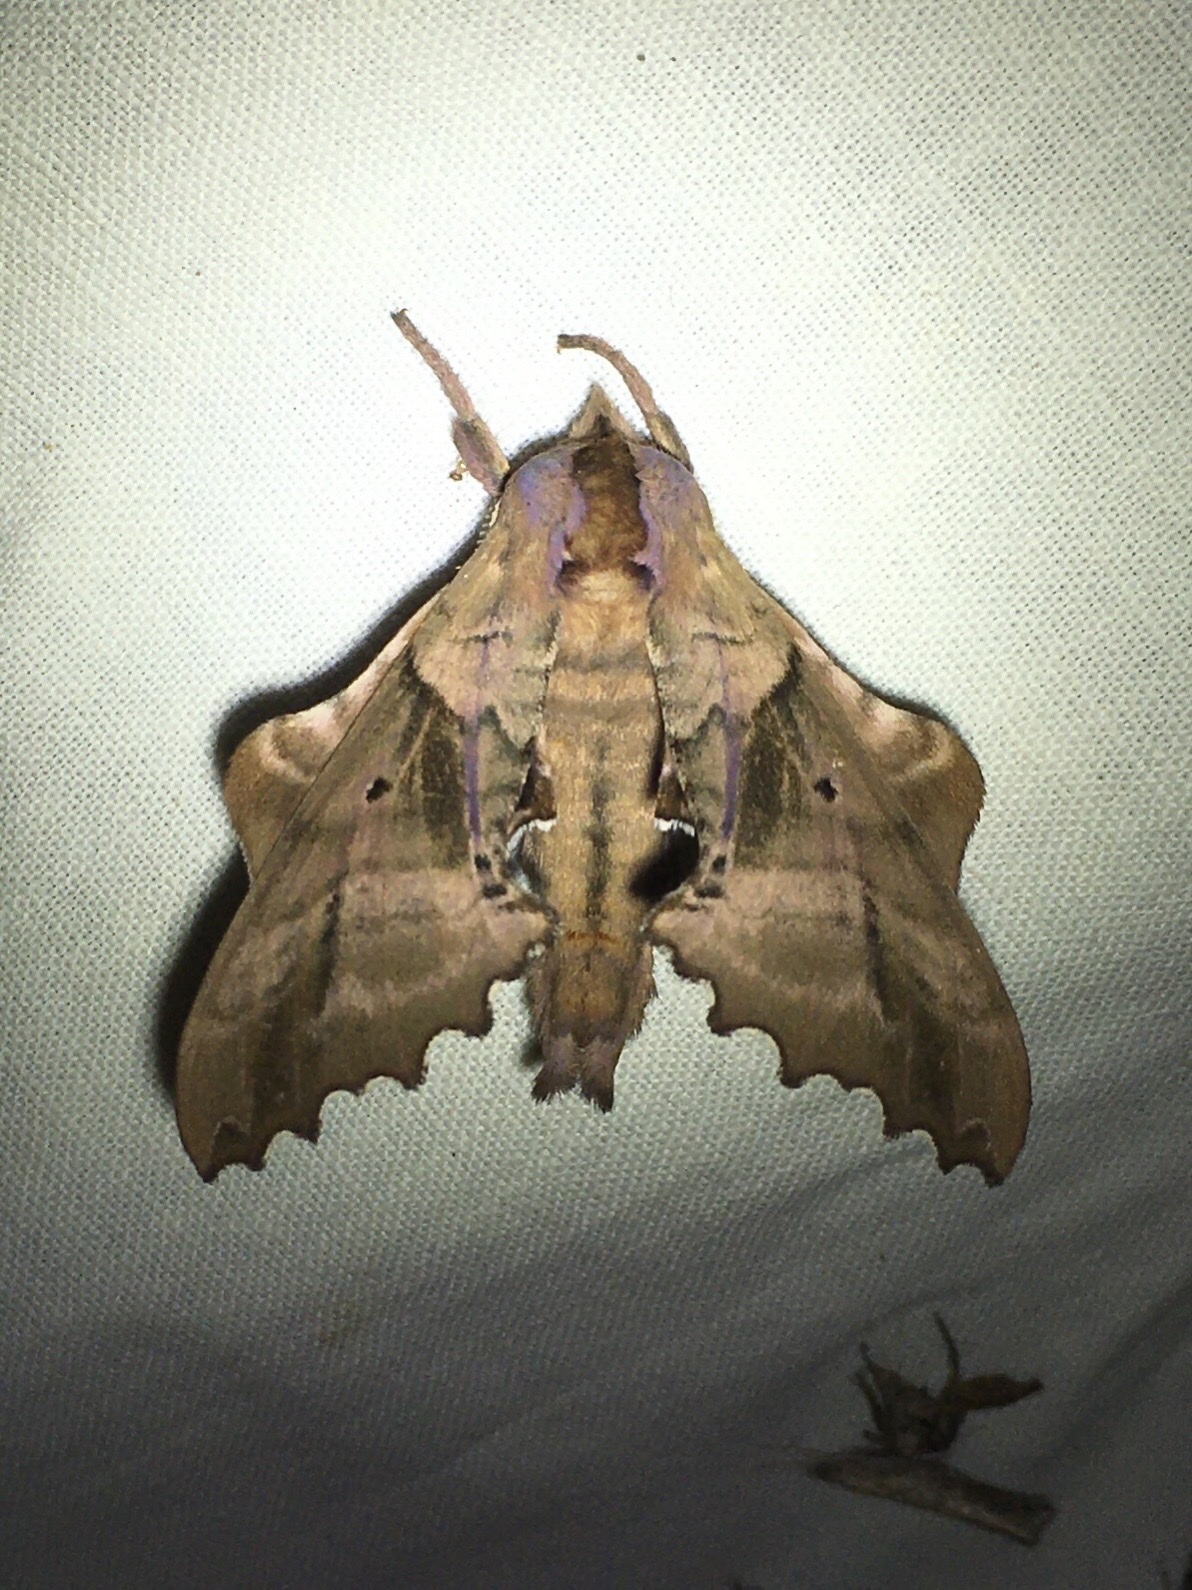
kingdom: Animalia
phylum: Arthropoda
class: Insecta
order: Lepidoptera
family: Sphingidae
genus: Paonias
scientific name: Paonias excaecata
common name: Blind-eyed sphinx
